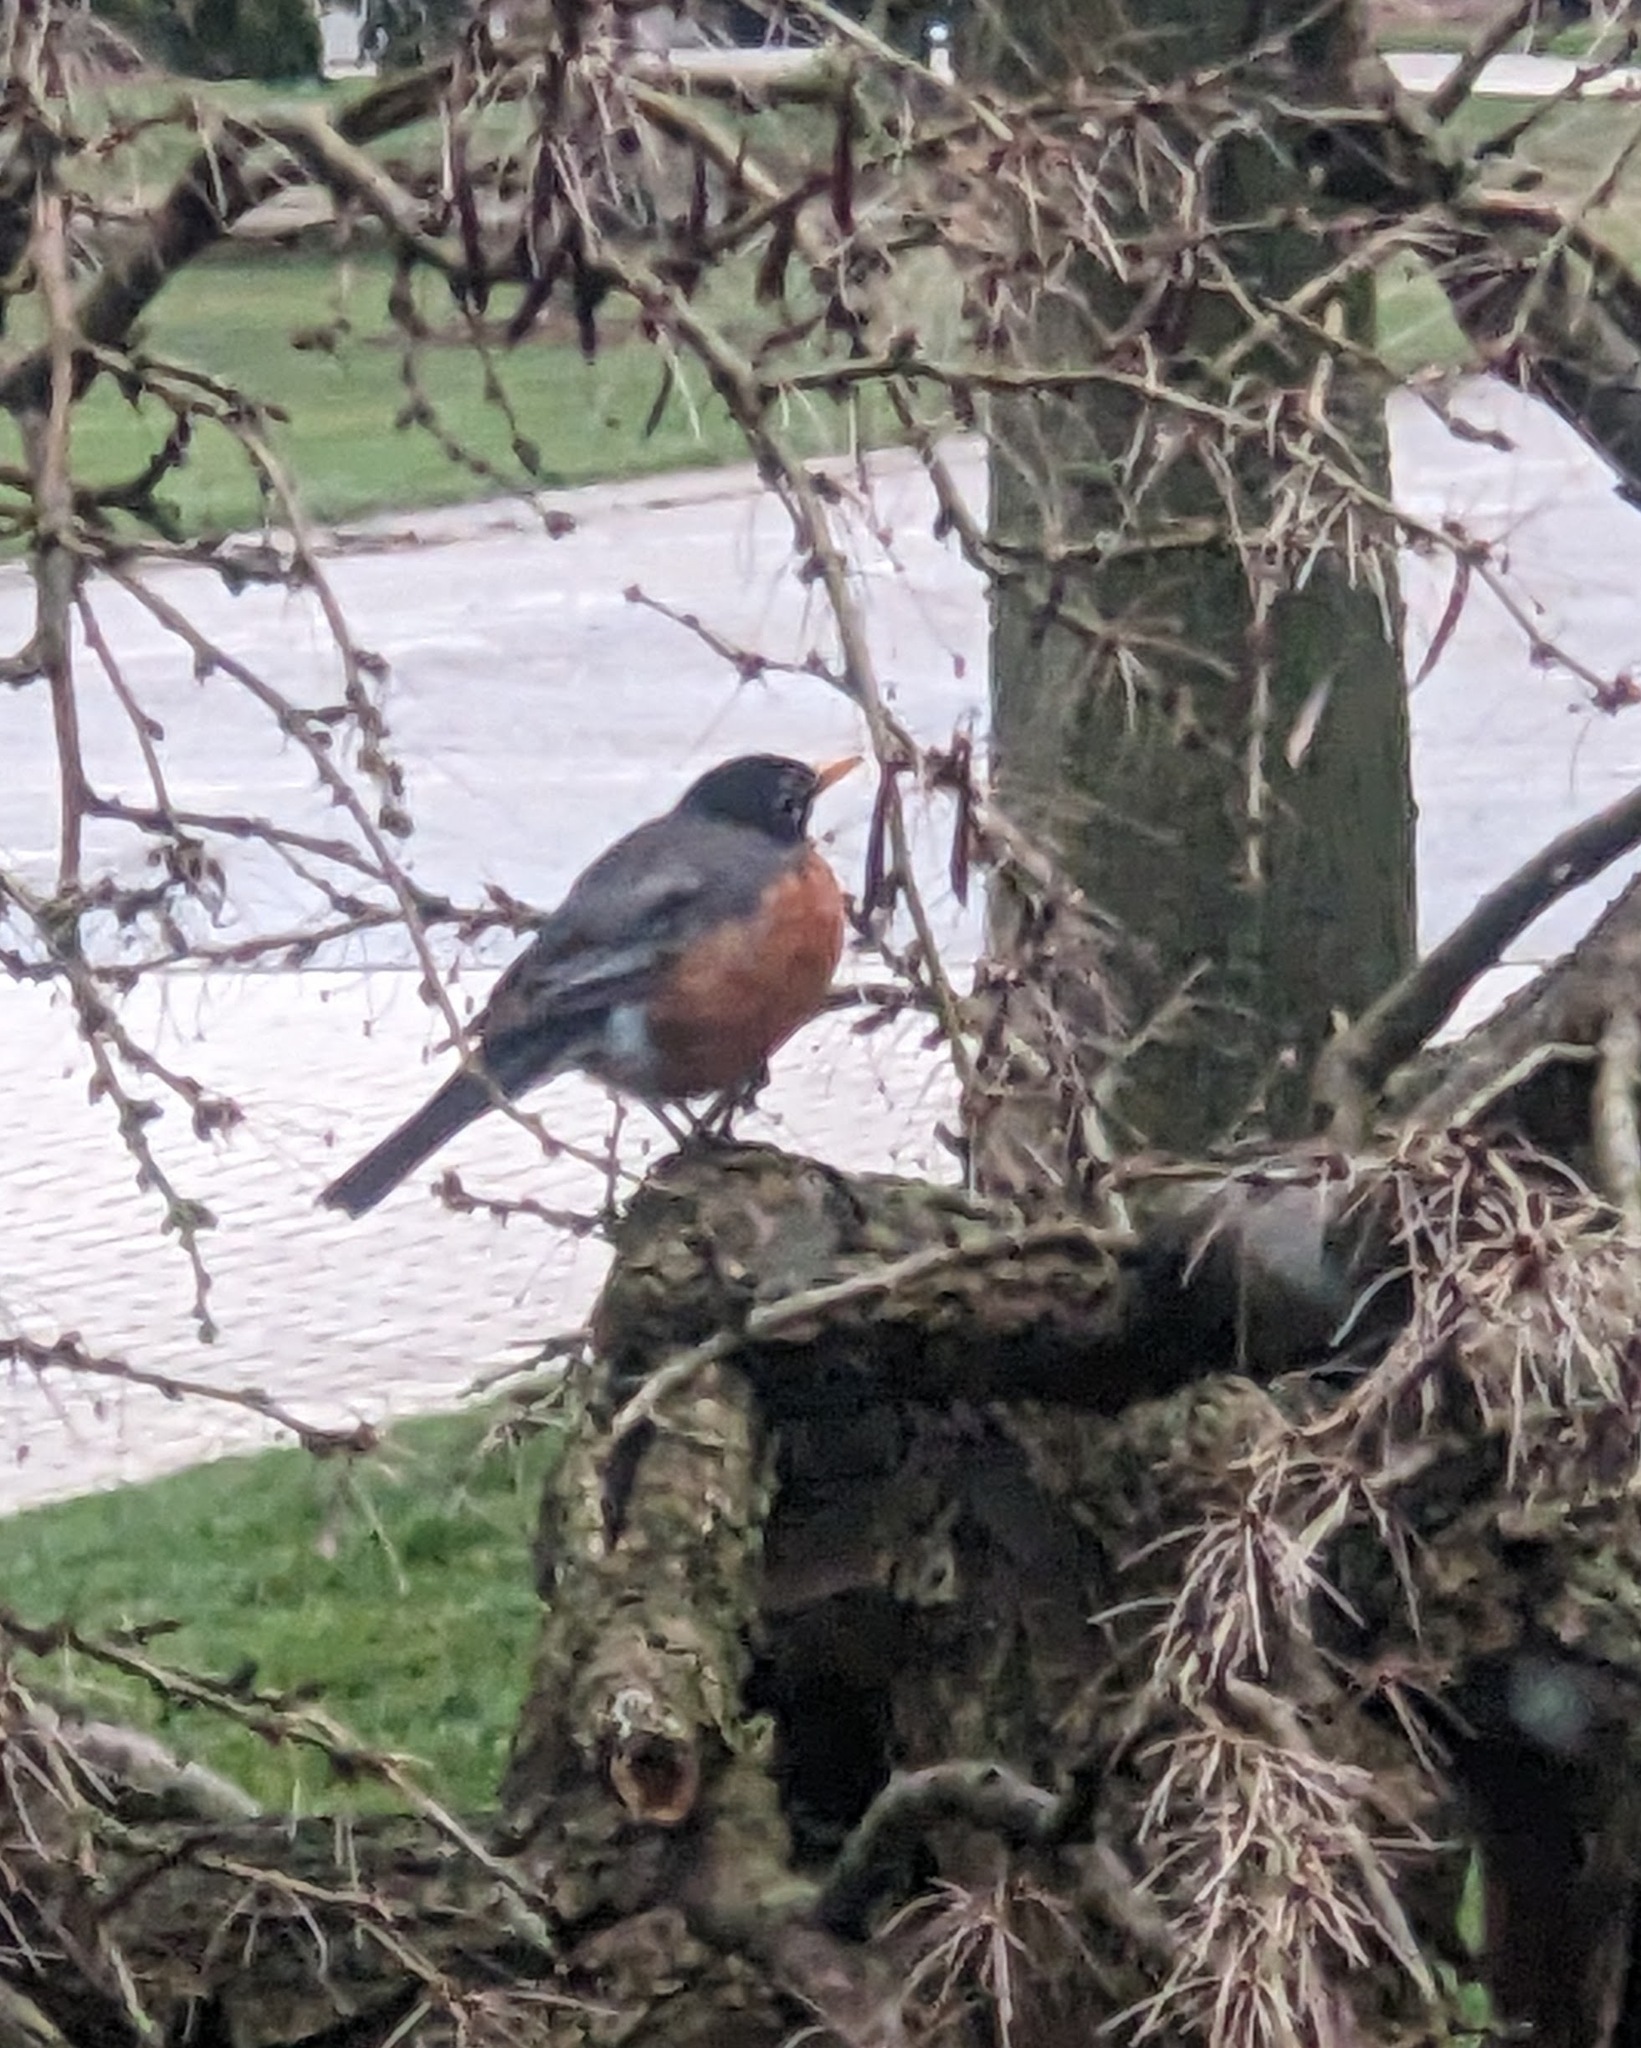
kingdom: Animalia
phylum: Chordata
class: Aves
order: Passeriformes
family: Turdidae
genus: Turdus
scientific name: Turdus migratorius
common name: American robin
